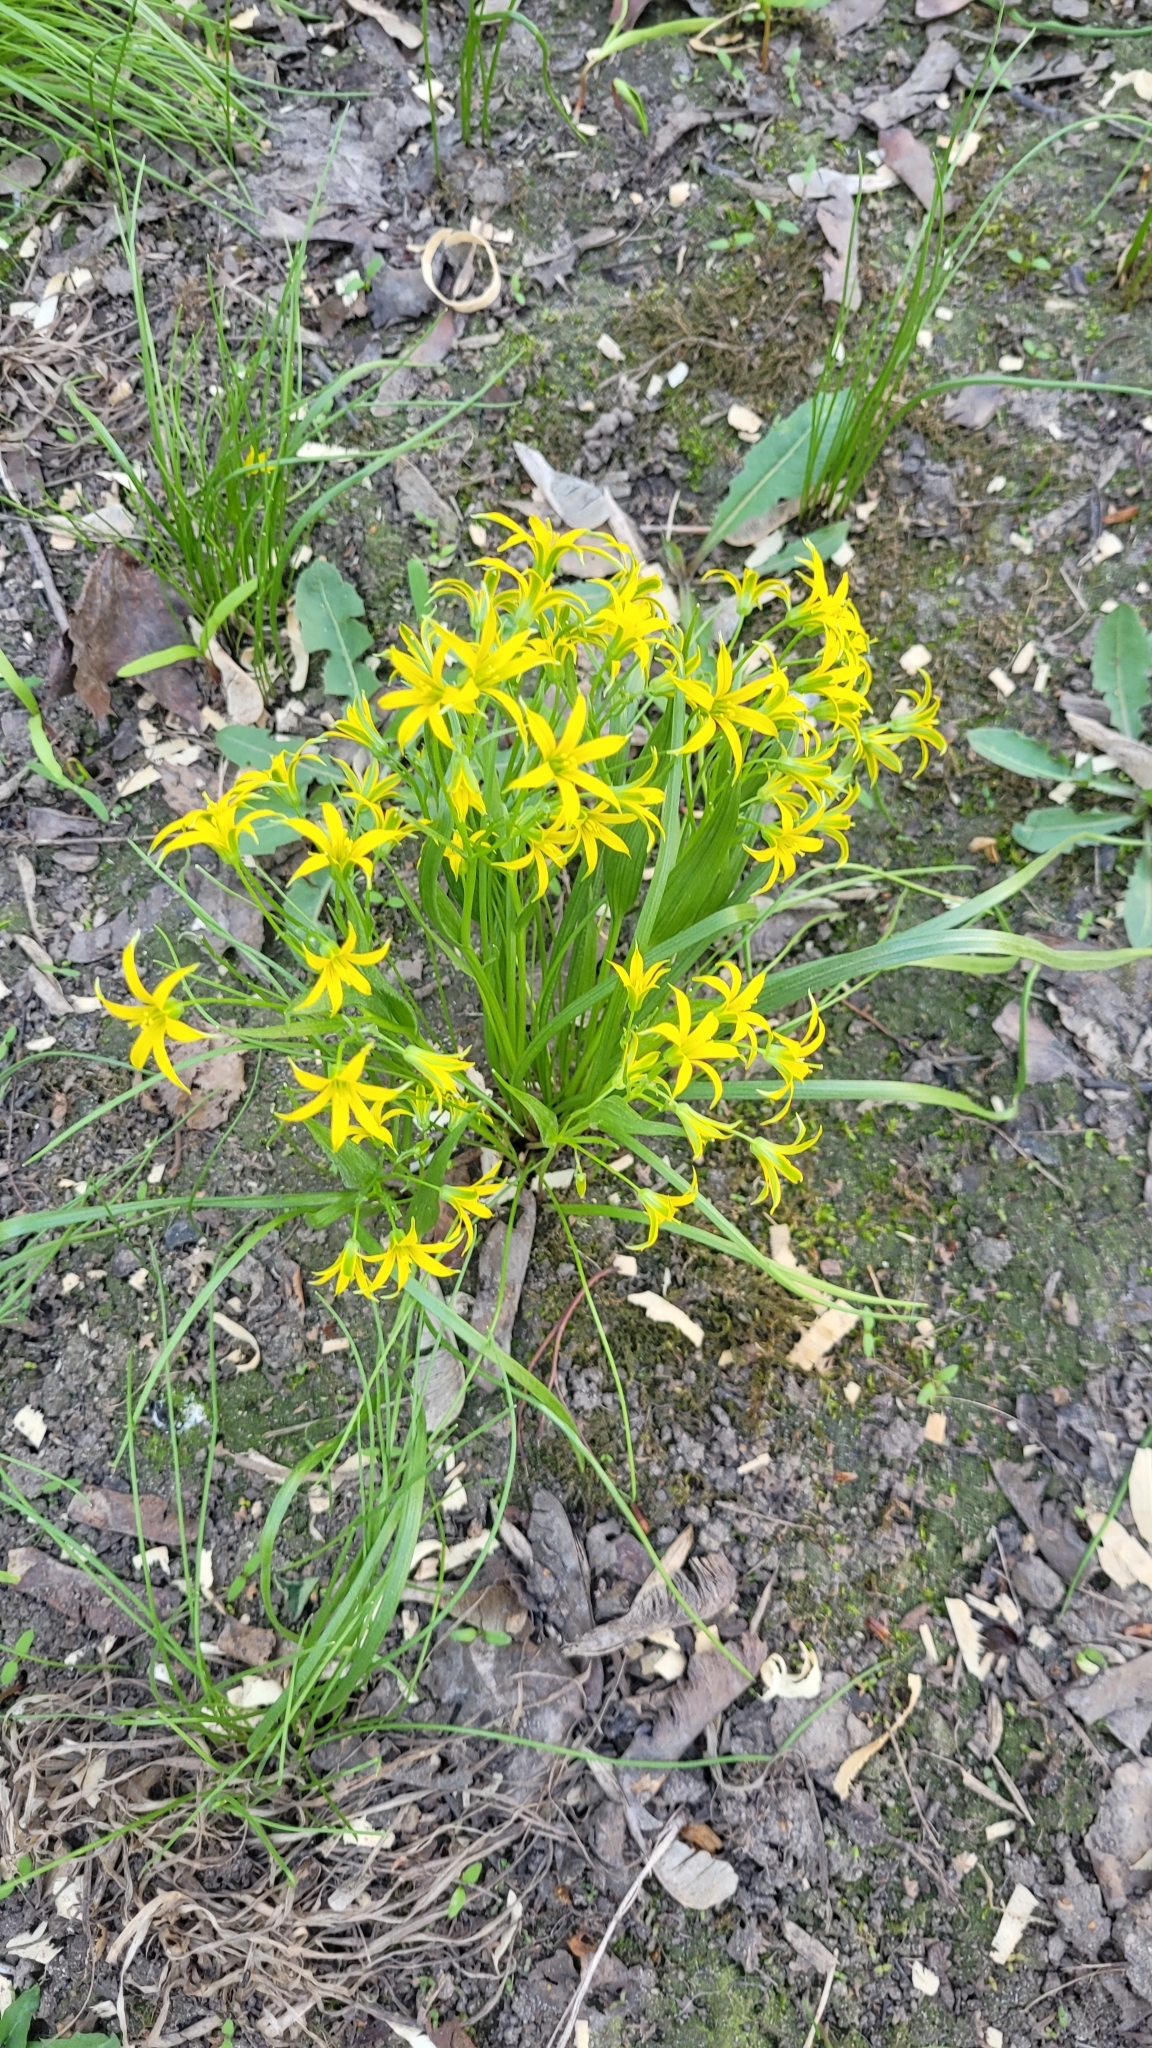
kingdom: Plantae
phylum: Tracheophyta
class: Liliopsida
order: Liliales
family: Liliaceae
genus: Gagea
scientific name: Gagea minima
